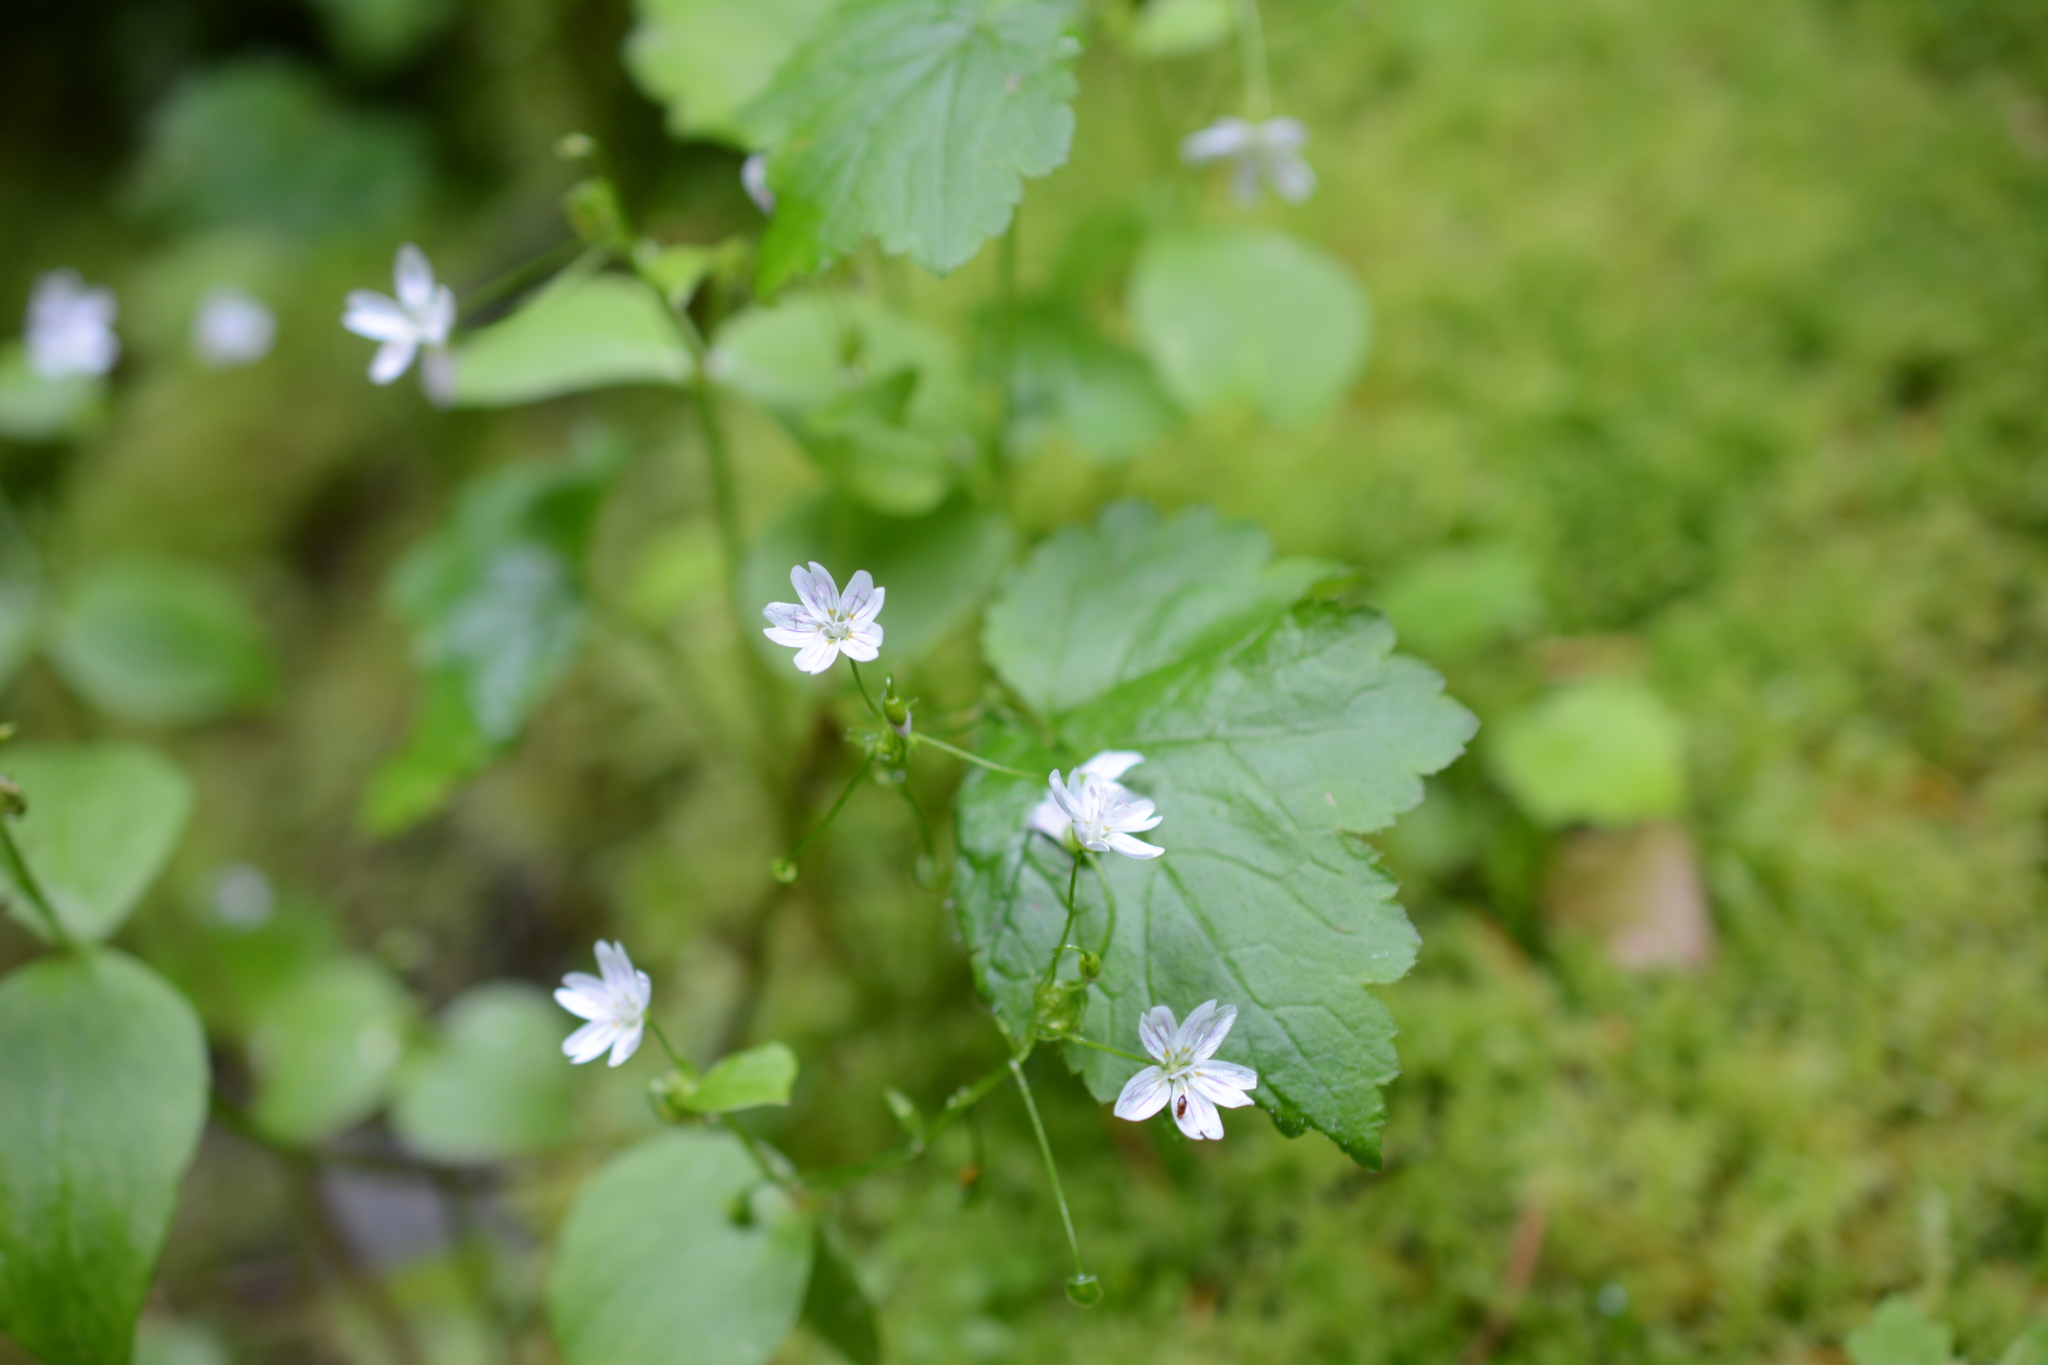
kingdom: Plantae
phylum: Tracheophyta
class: Magnoliopsida
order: Caryophyllales
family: Montiaceae
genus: Claytonia
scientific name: Claytonia sibirica
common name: Pink purslane
